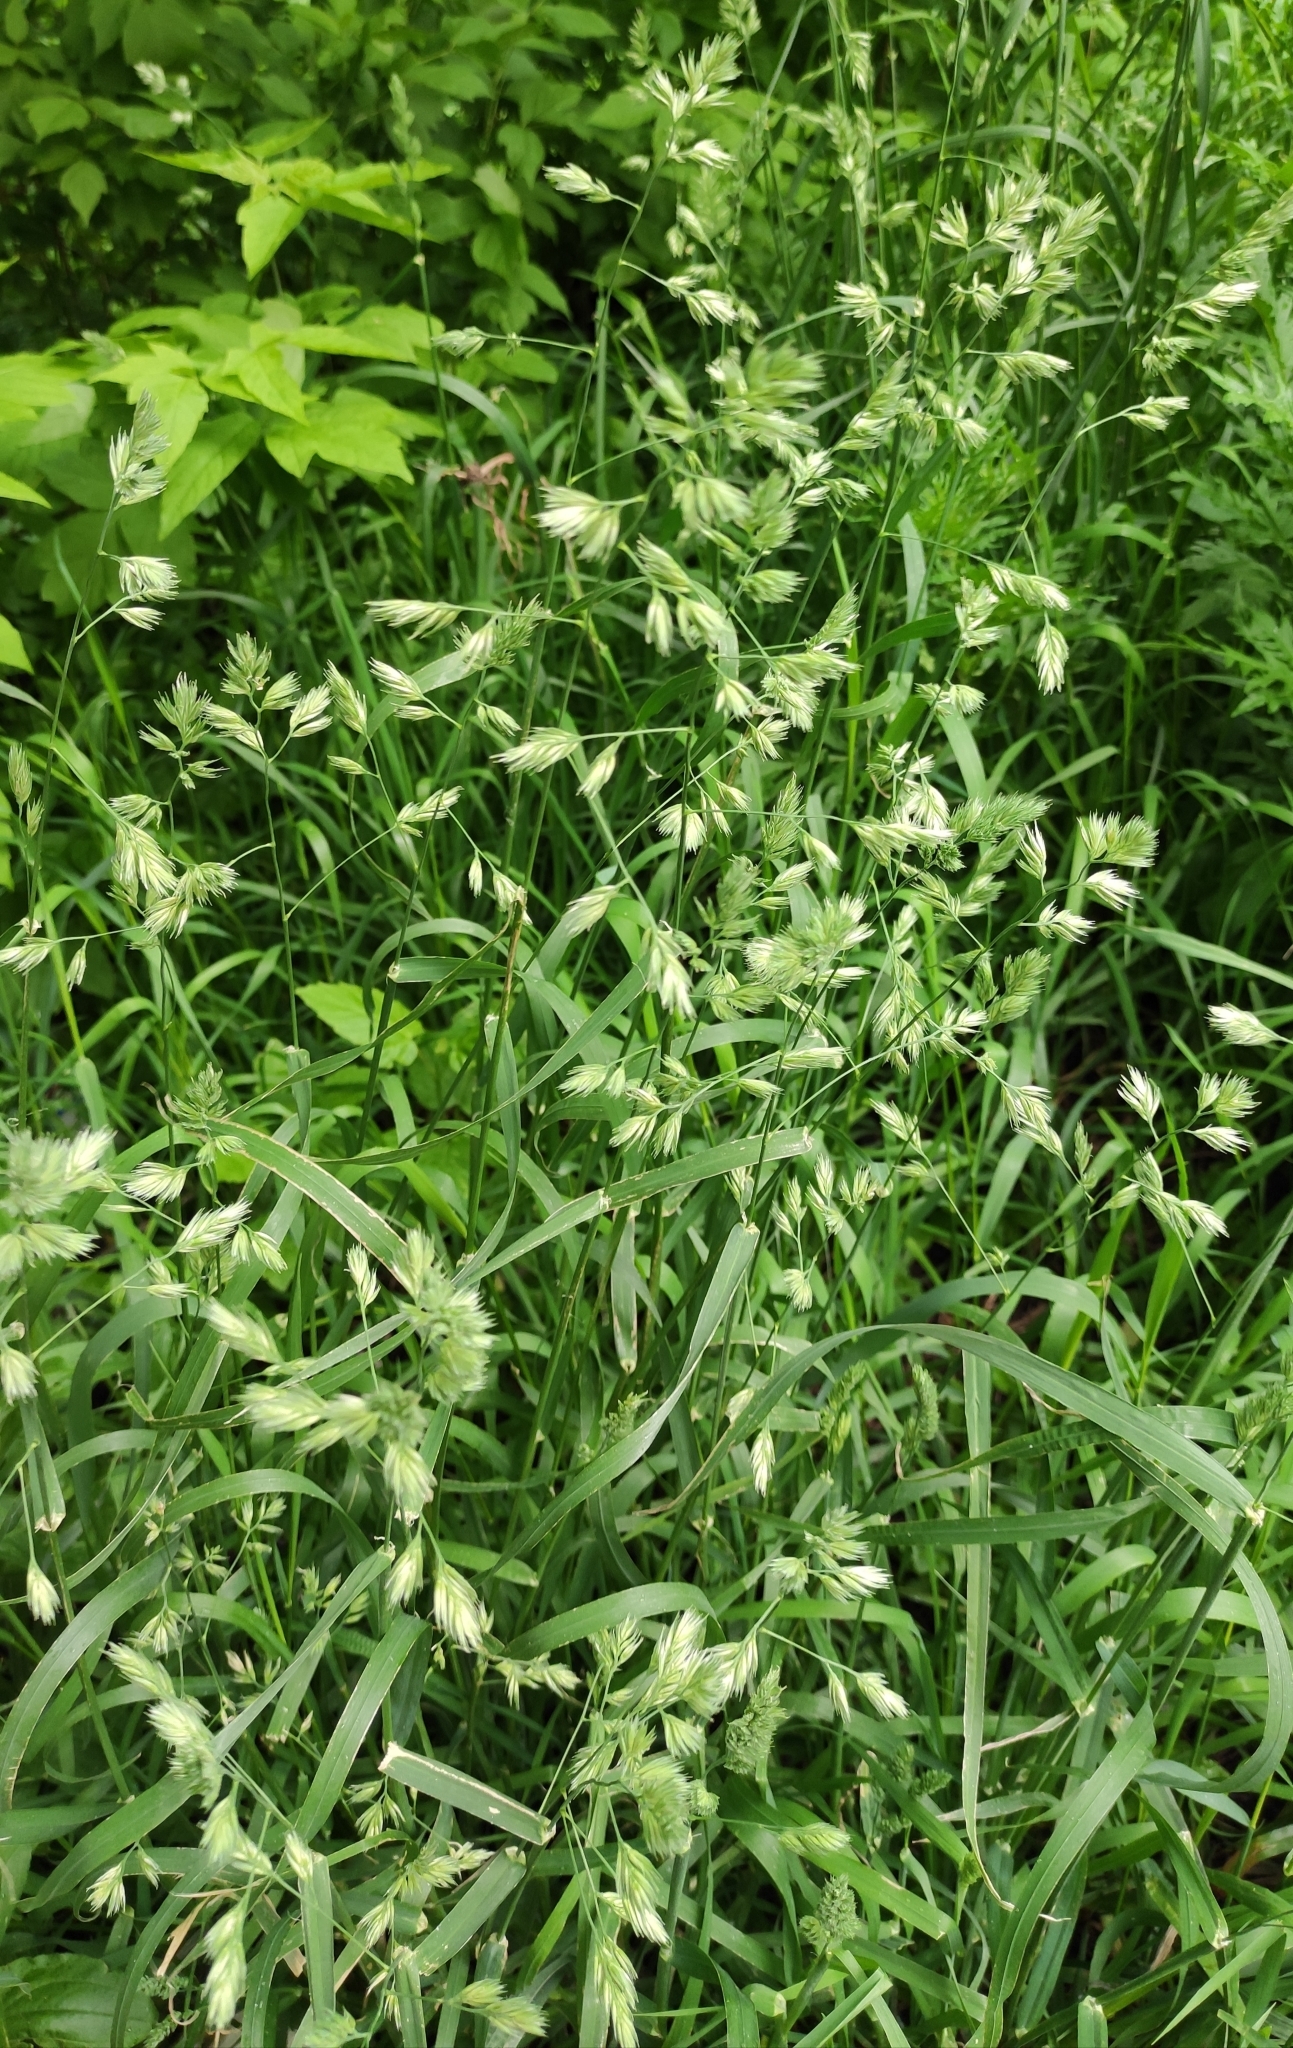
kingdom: Plantae
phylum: Tracheophyta
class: Liliopsida
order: Poales
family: Poaceae
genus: Dactylis
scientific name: Dactylis glomerata
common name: Orchardgrass
